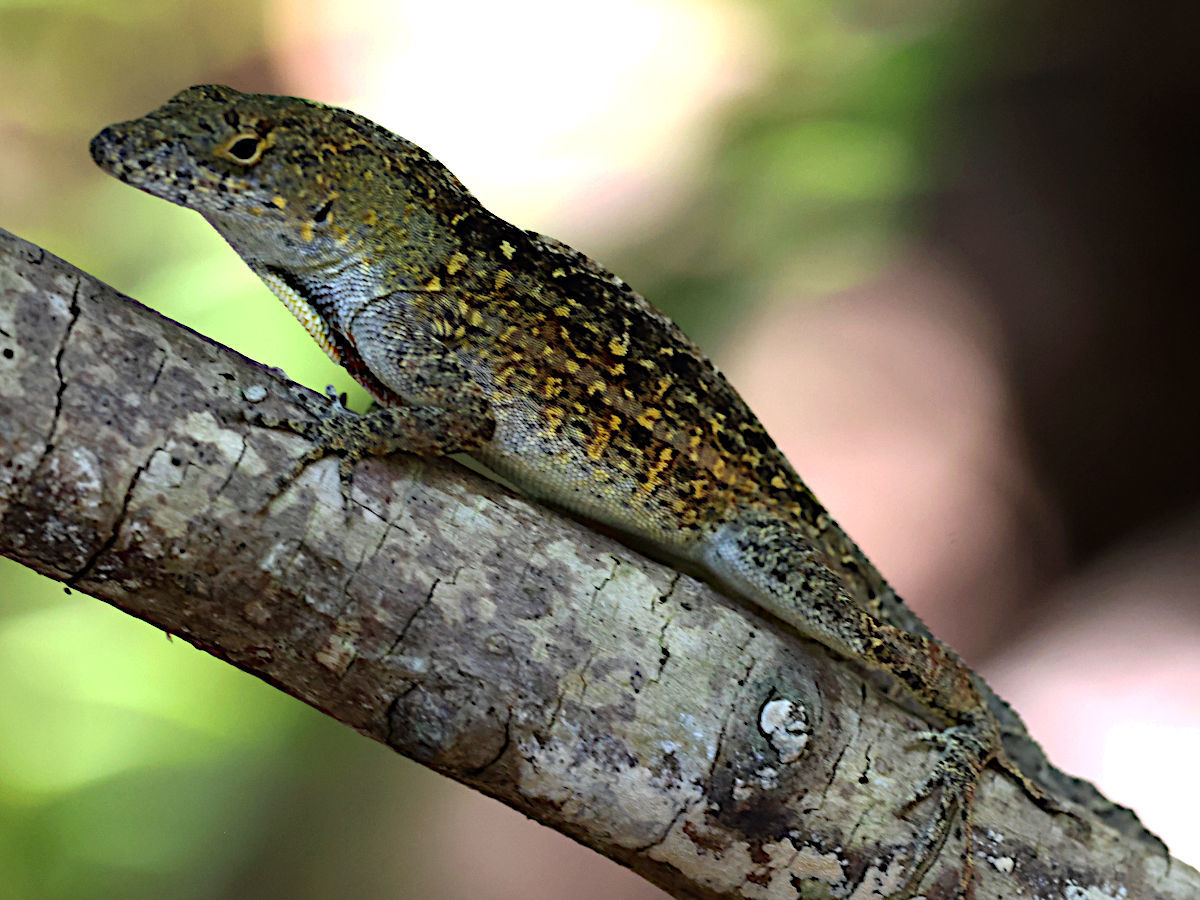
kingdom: Animalia
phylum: Chordata
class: Squamata
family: Dactyloidae
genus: Anolis
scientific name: Anolis sagrei
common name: Brown anole
